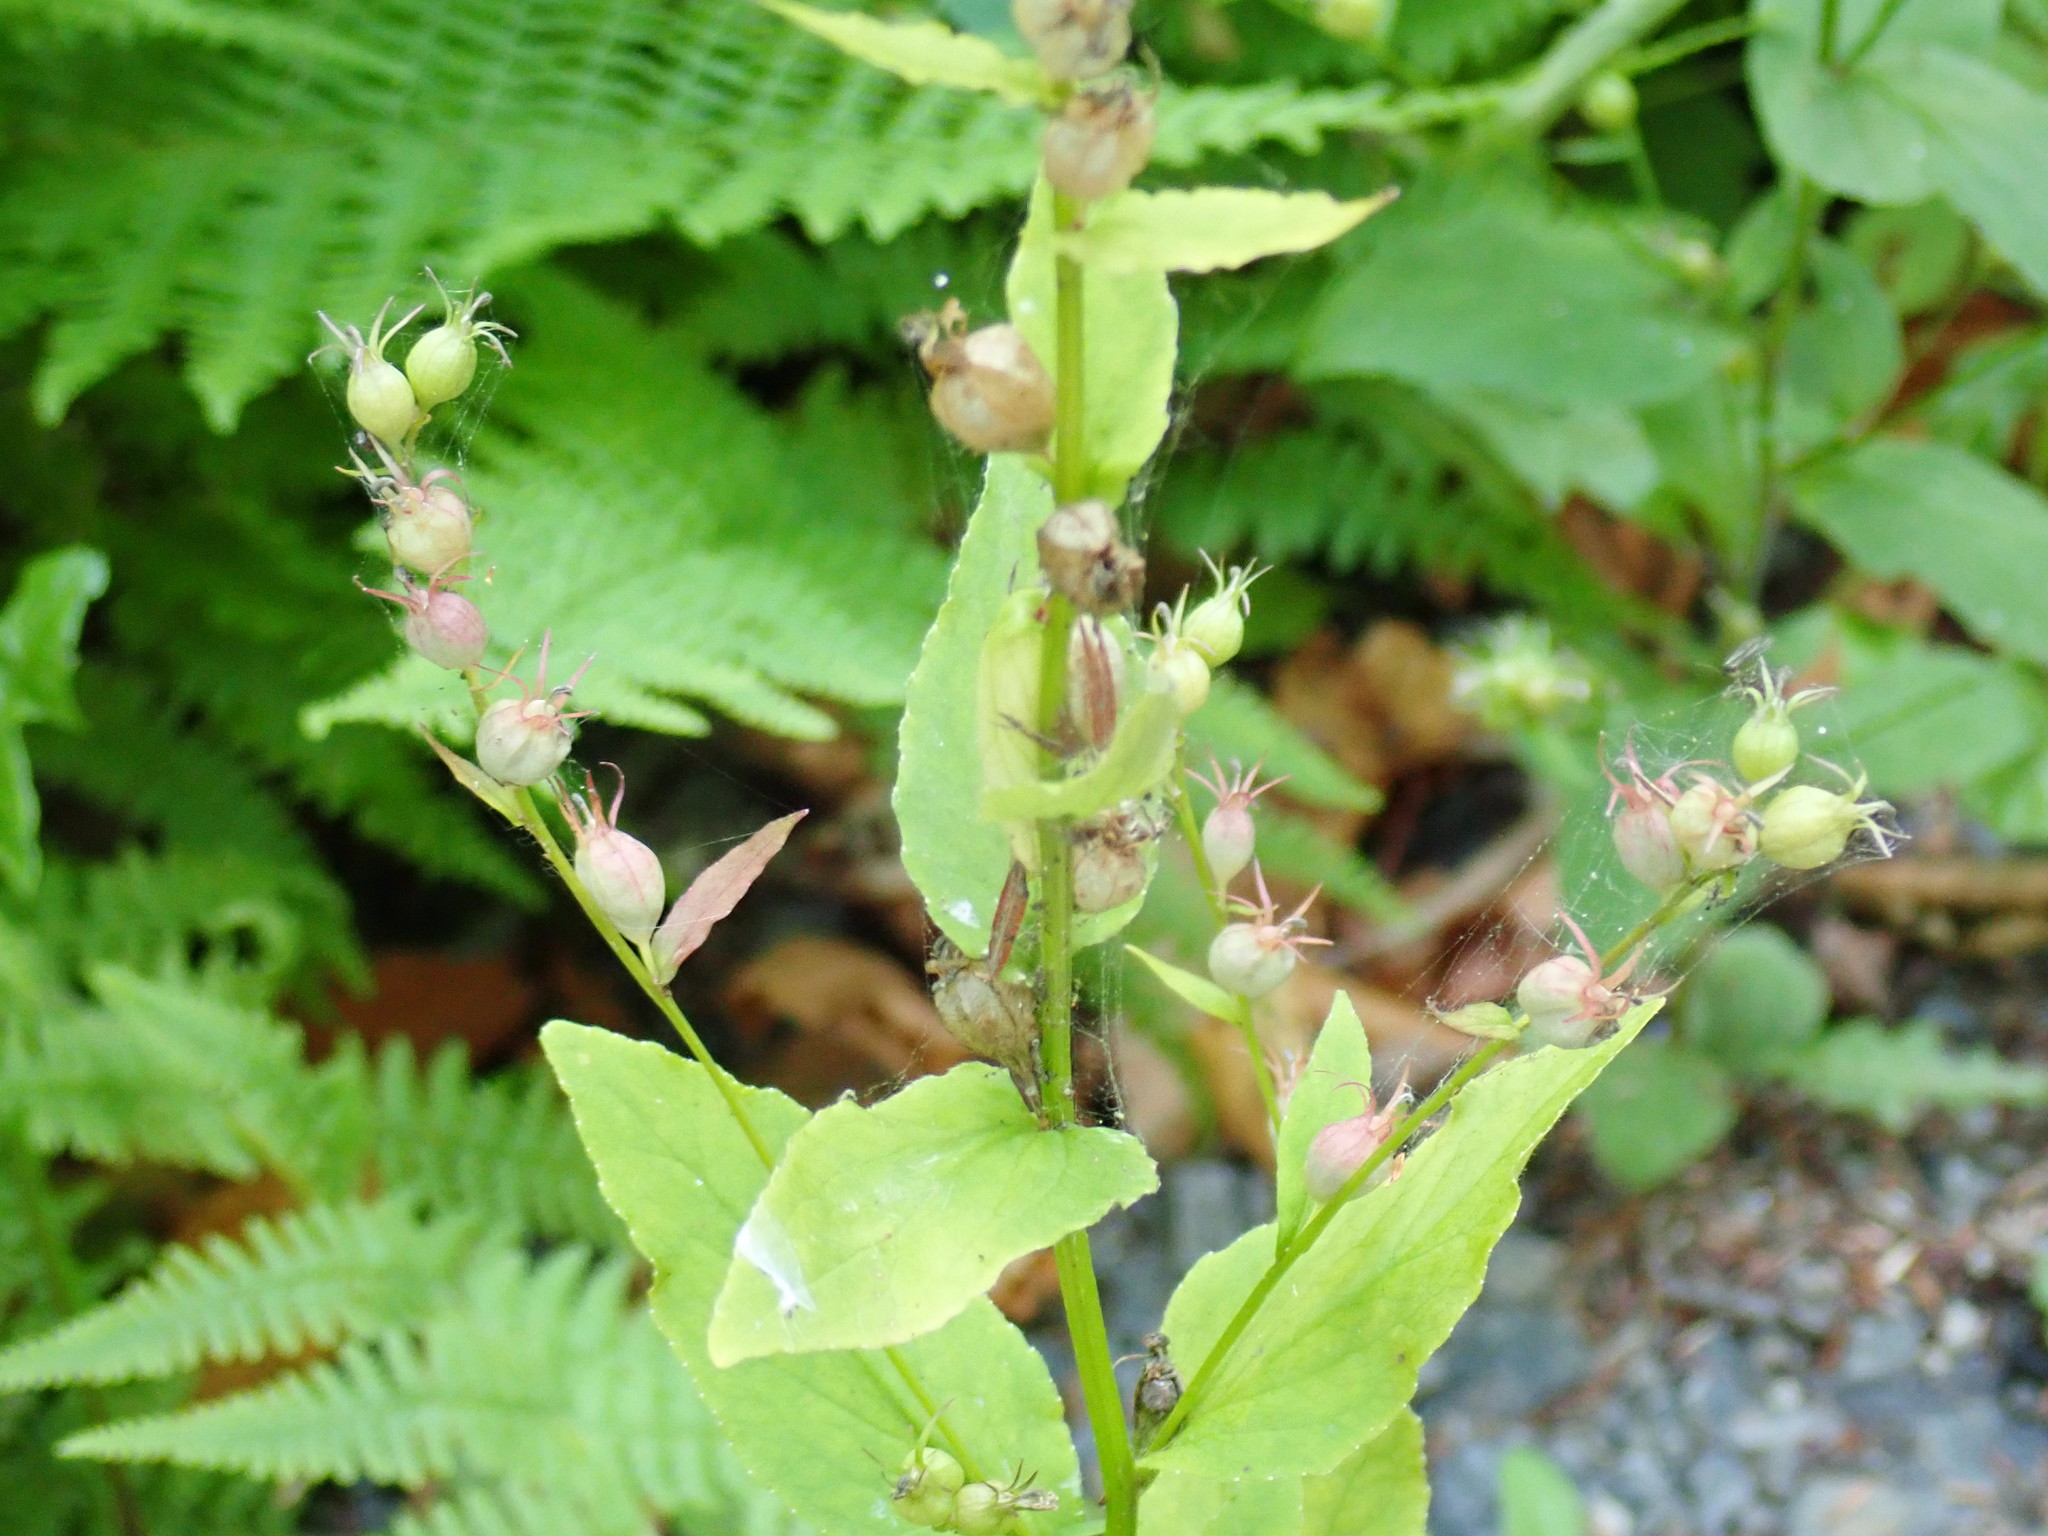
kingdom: Plantae
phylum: Tracheophyta
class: Magnoliopsida
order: Asterales
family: Campanulaceae
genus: Lobelia
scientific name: Lobelia inflata
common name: Indian tobacco
